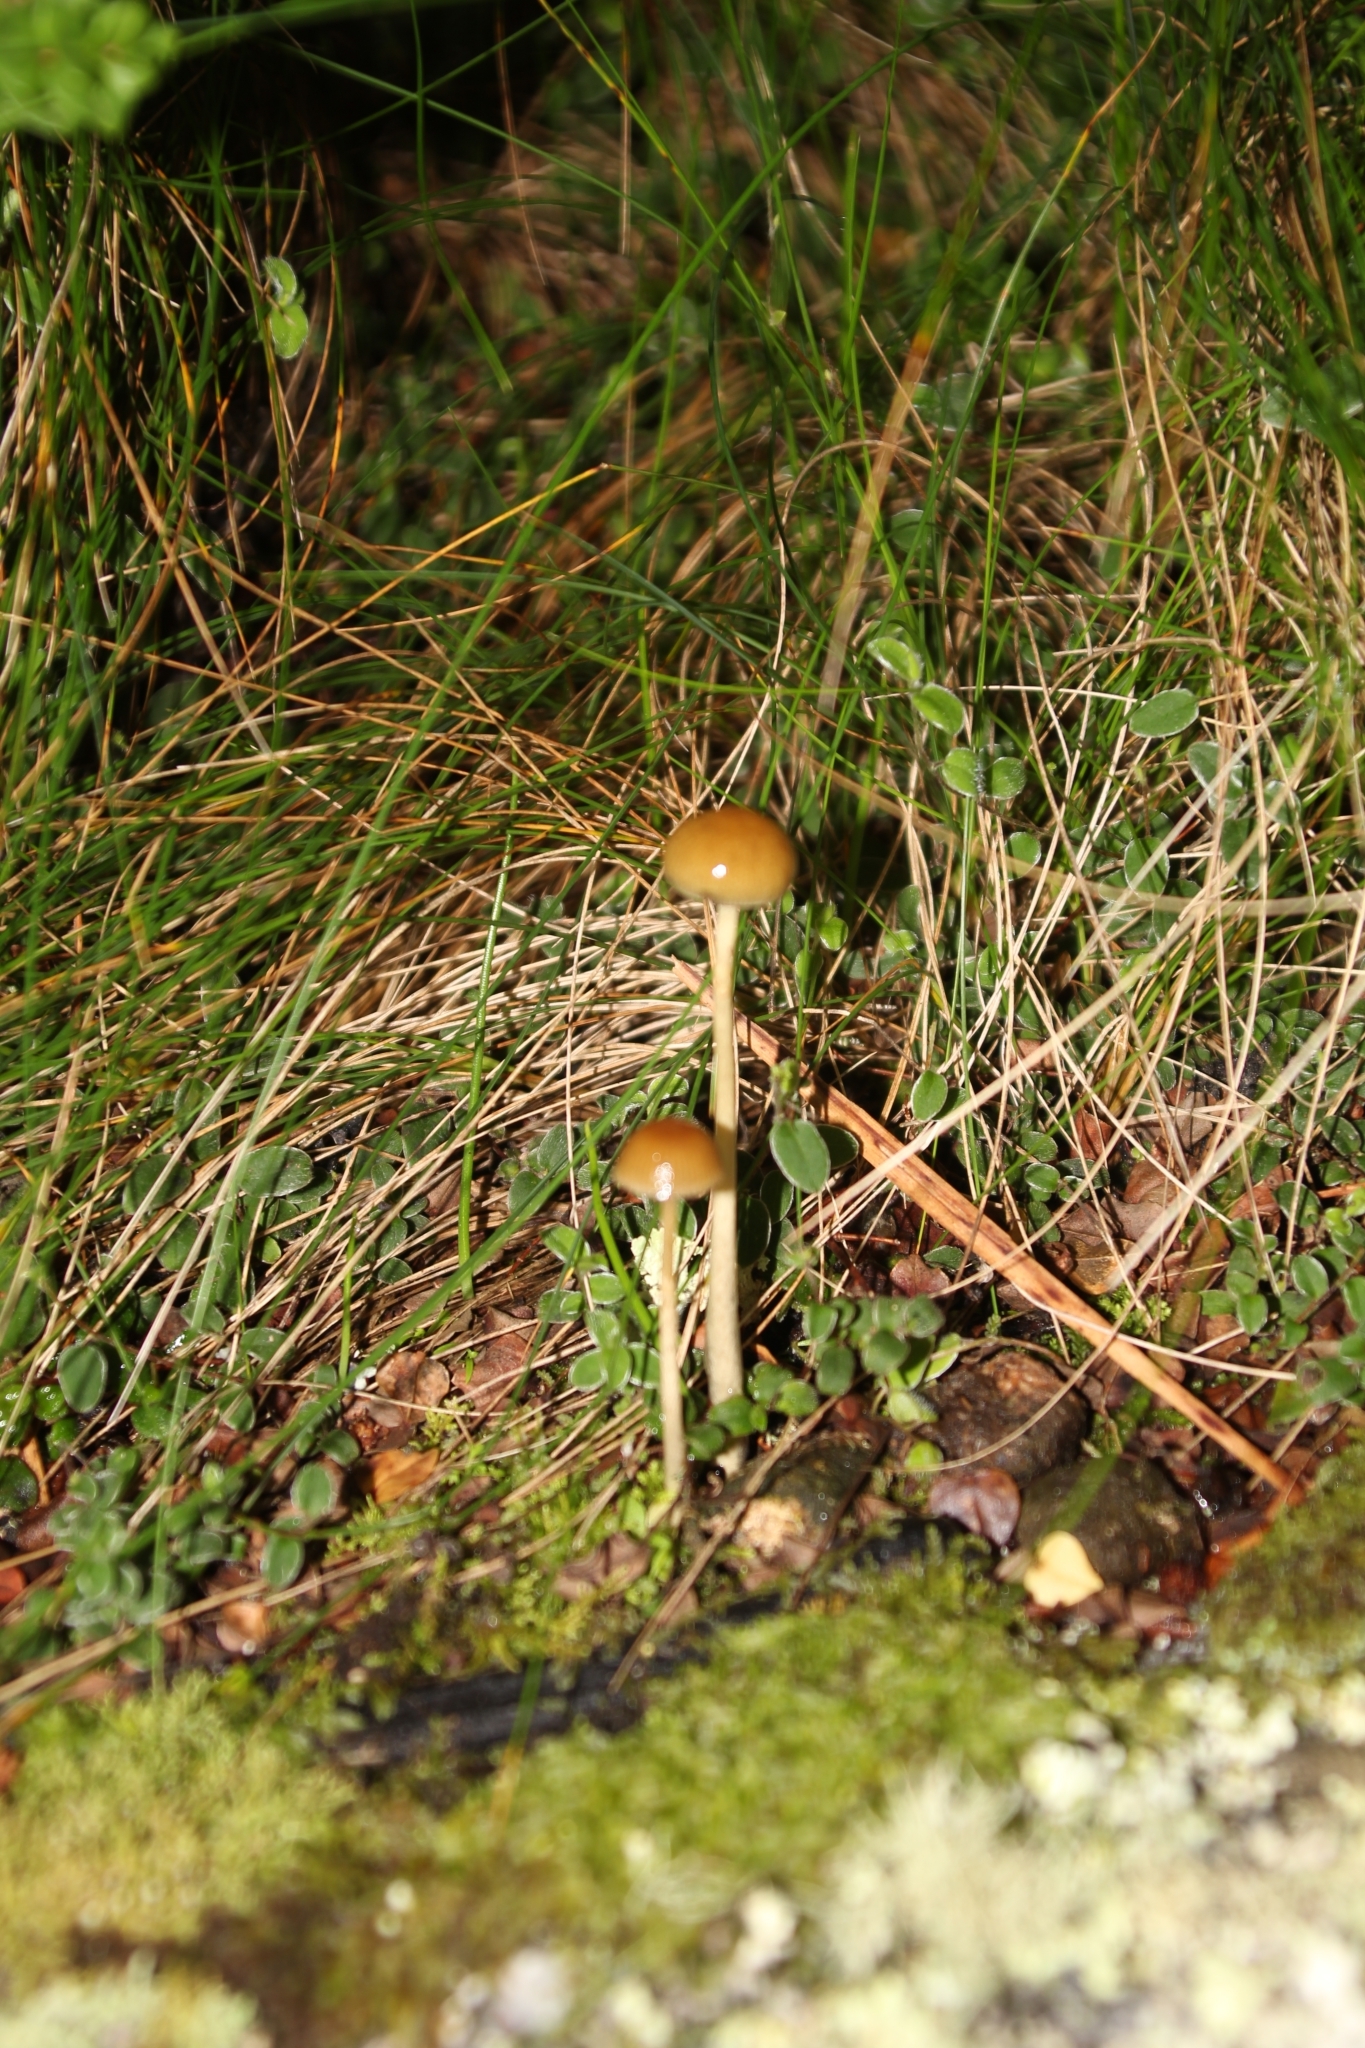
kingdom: Fungi
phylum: Basidiomycota
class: Agaricomycetes
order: Agaricales
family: Strophariaceae
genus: Protostropharia
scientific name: Protostropharia semiglobata
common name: Dung roundhead
